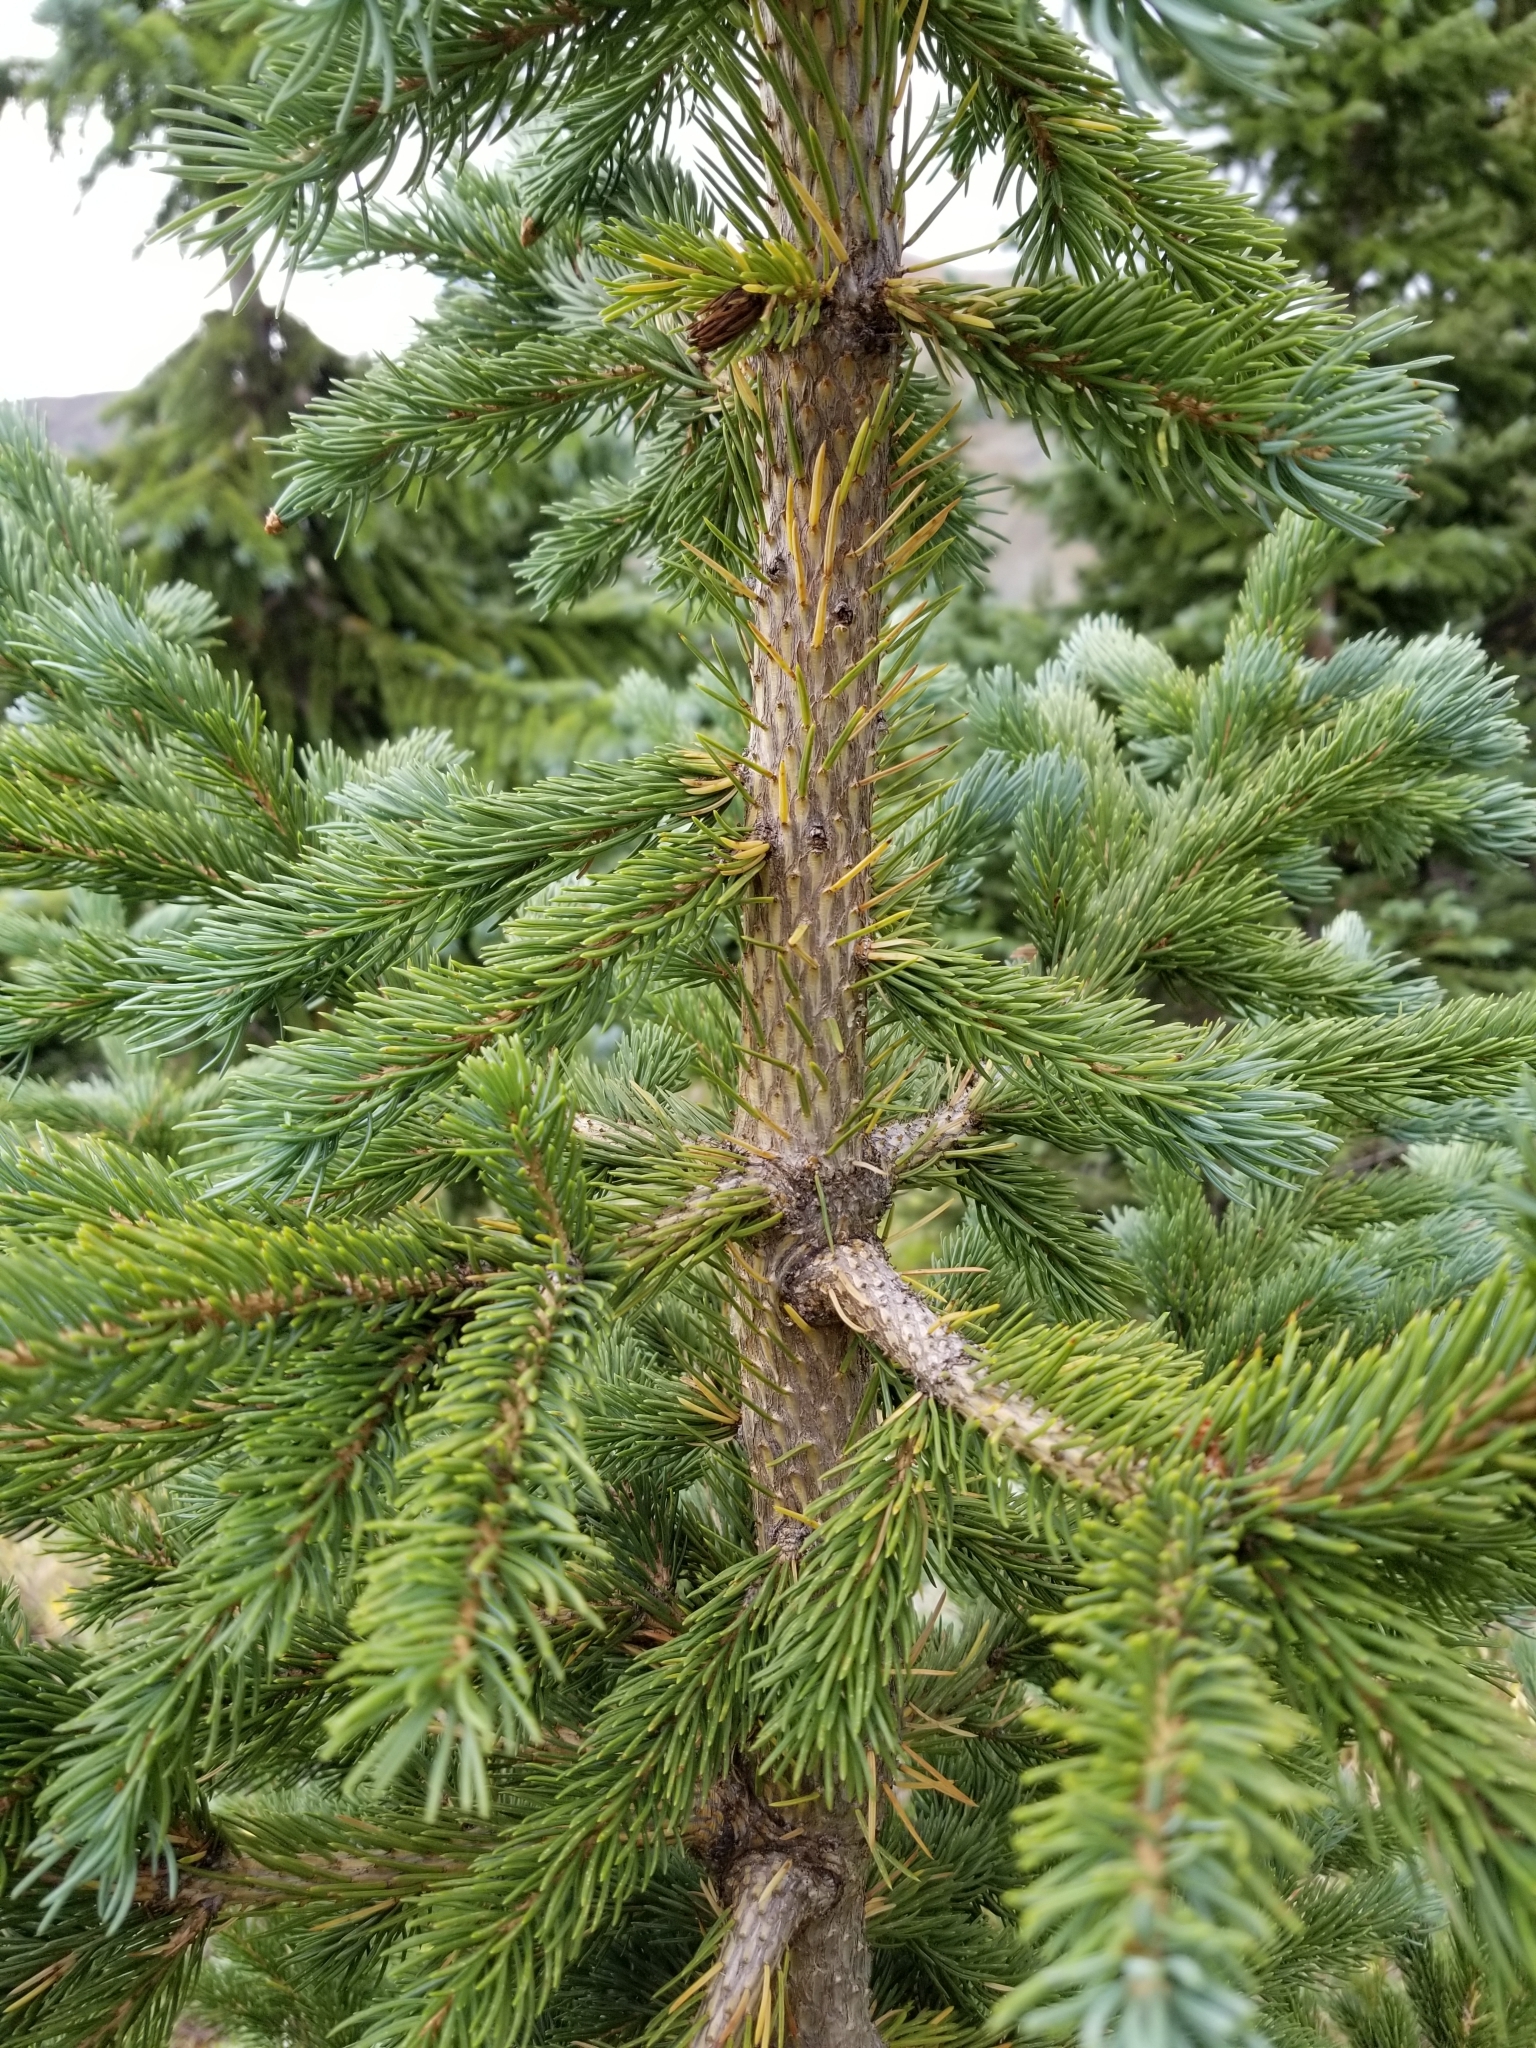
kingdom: Plantae
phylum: Tracheophyta
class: Pinopsida
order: Pinales
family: Pinaceae
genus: Picea
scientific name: Picea engelmannii
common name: Engelmann spruce
